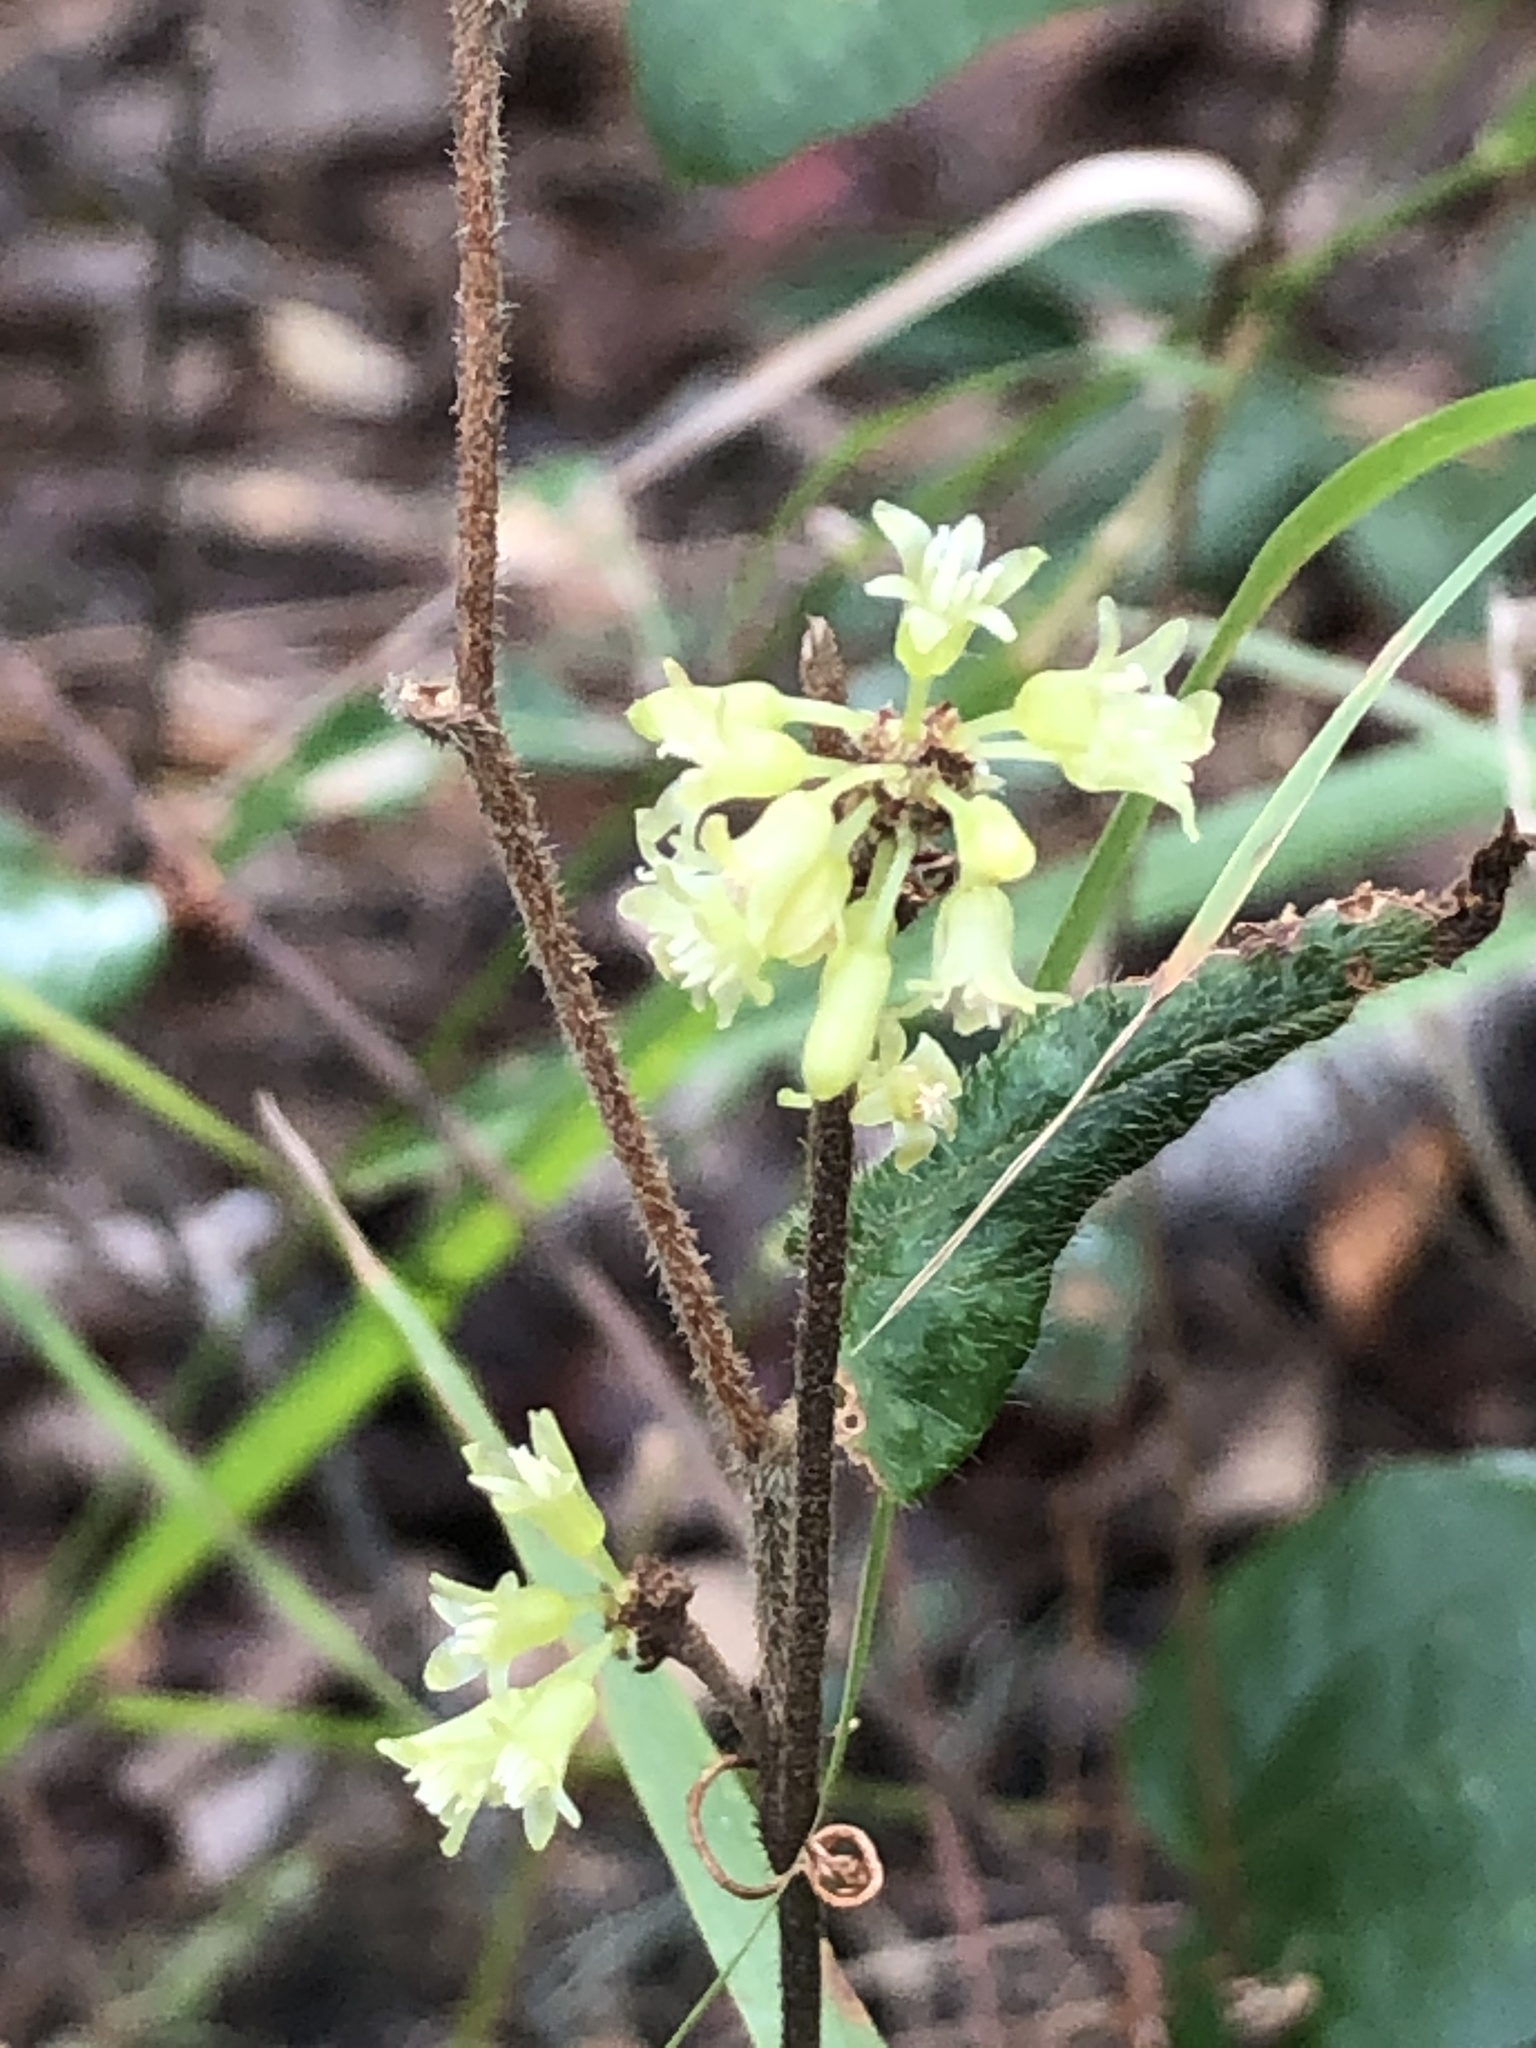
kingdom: Plantae
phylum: Tracheophyta
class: Liliopsida
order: Liliales
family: Smilacaceae
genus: Smilax
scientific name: Smilax pumila
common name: Sarsaparilla-vine
